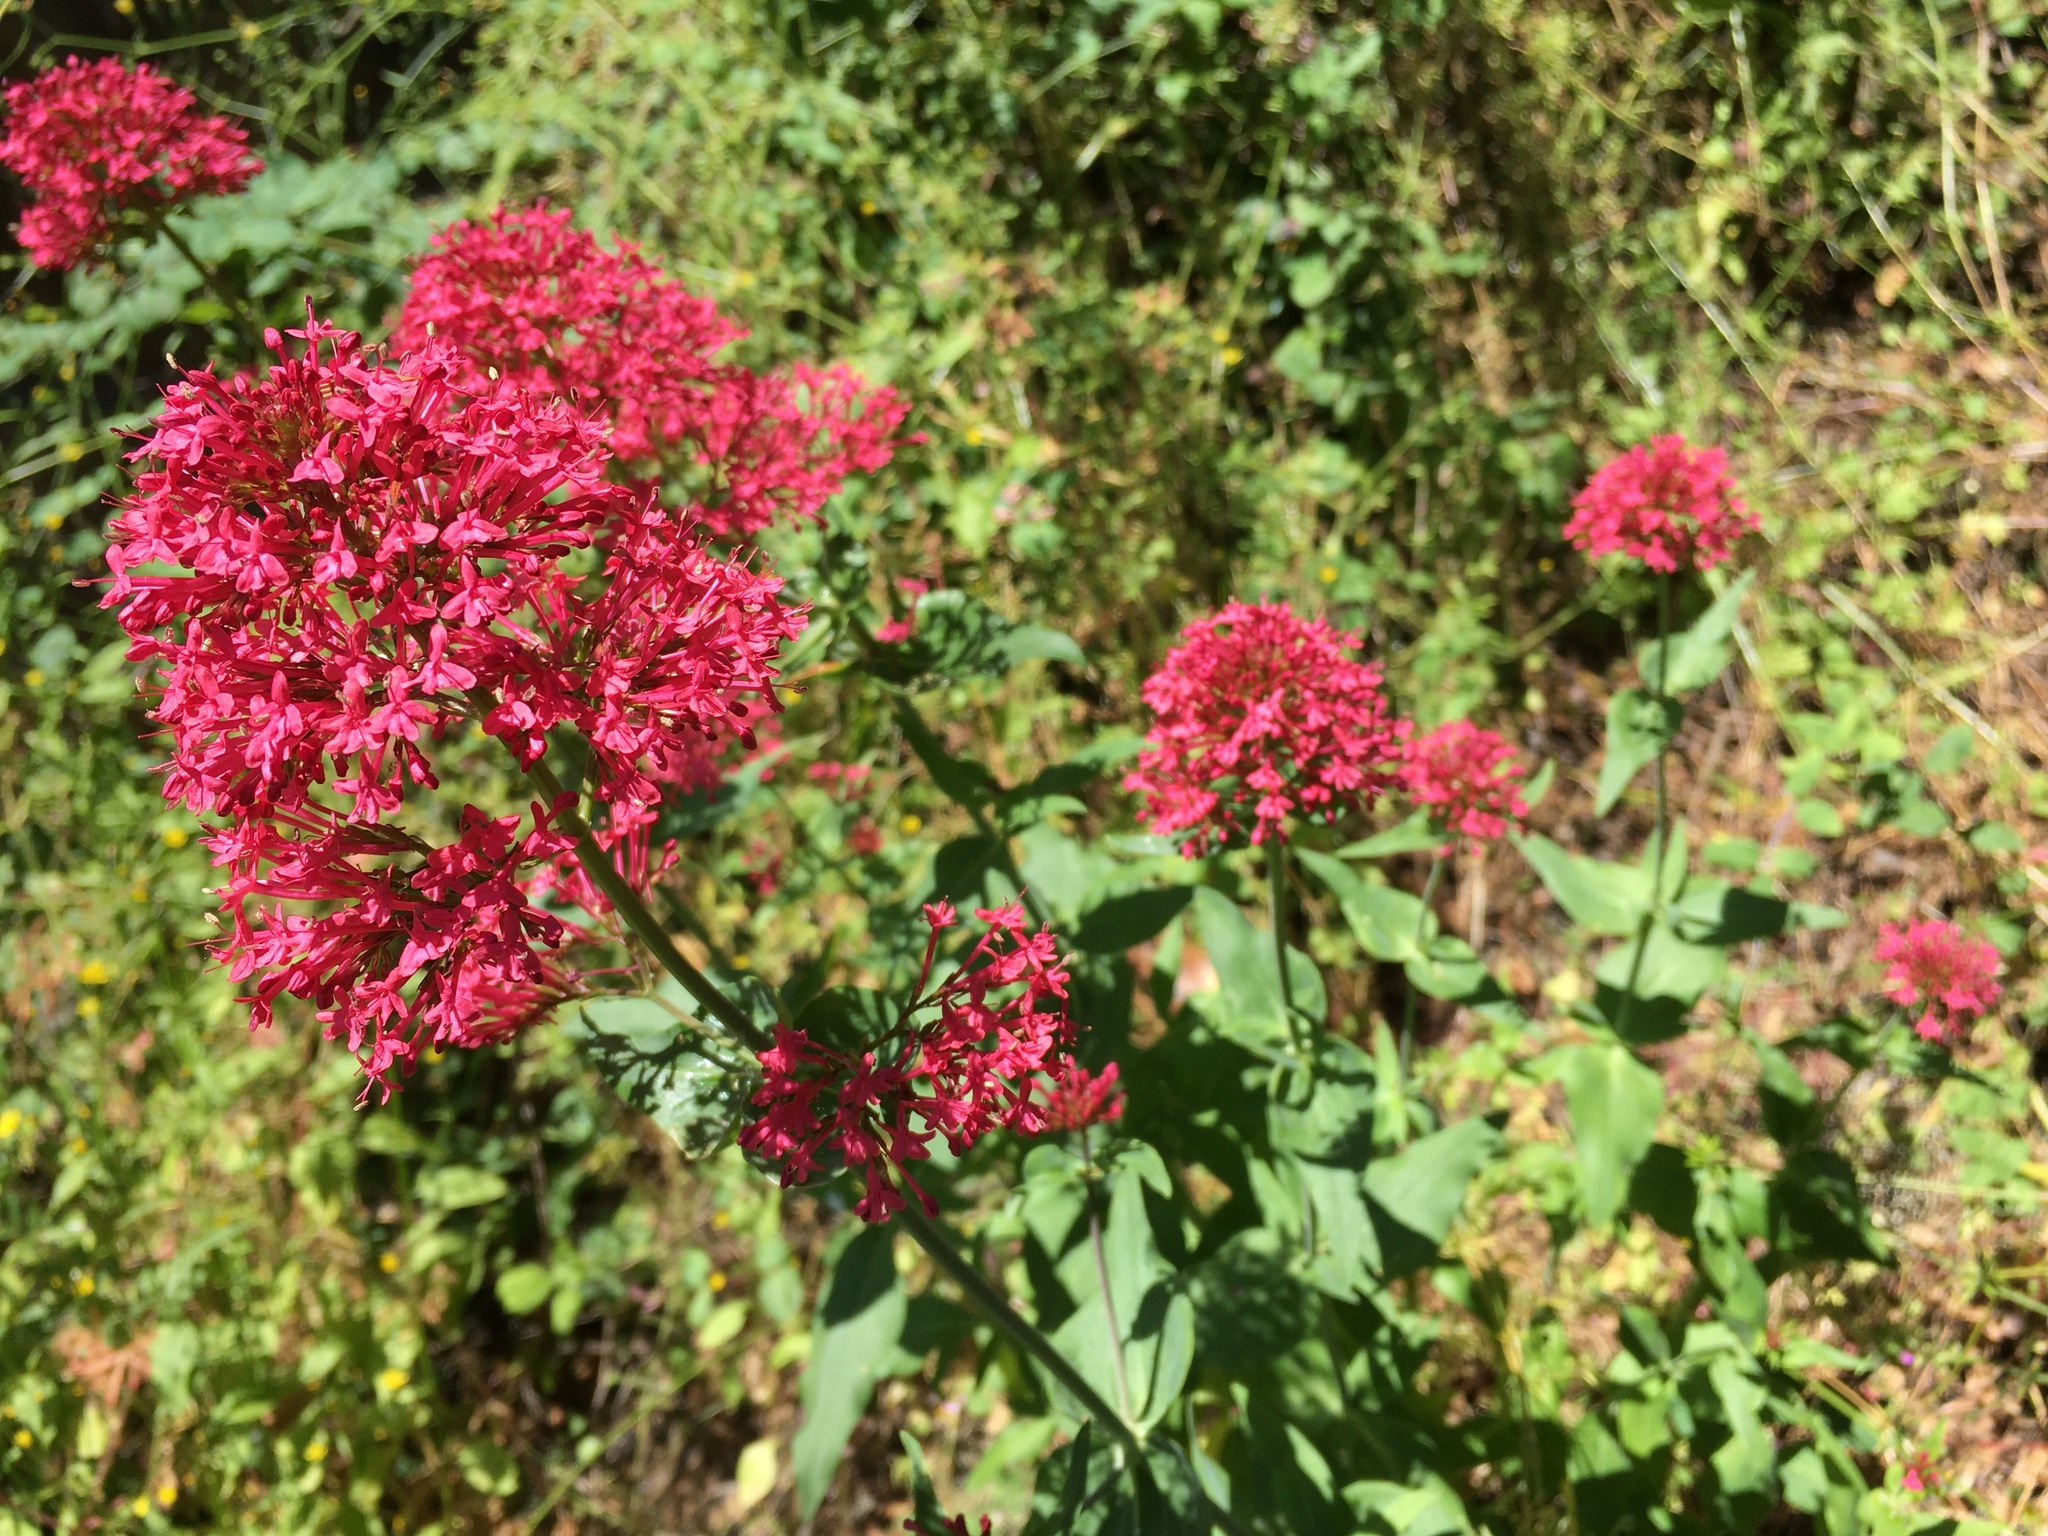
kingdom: Plantae
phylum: Tracheophyta
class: Magnoliopsida
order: Dipsacales
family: Caprifoliaceae
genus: Centranthus
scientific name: Centranthus ruber
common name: Red valerian
